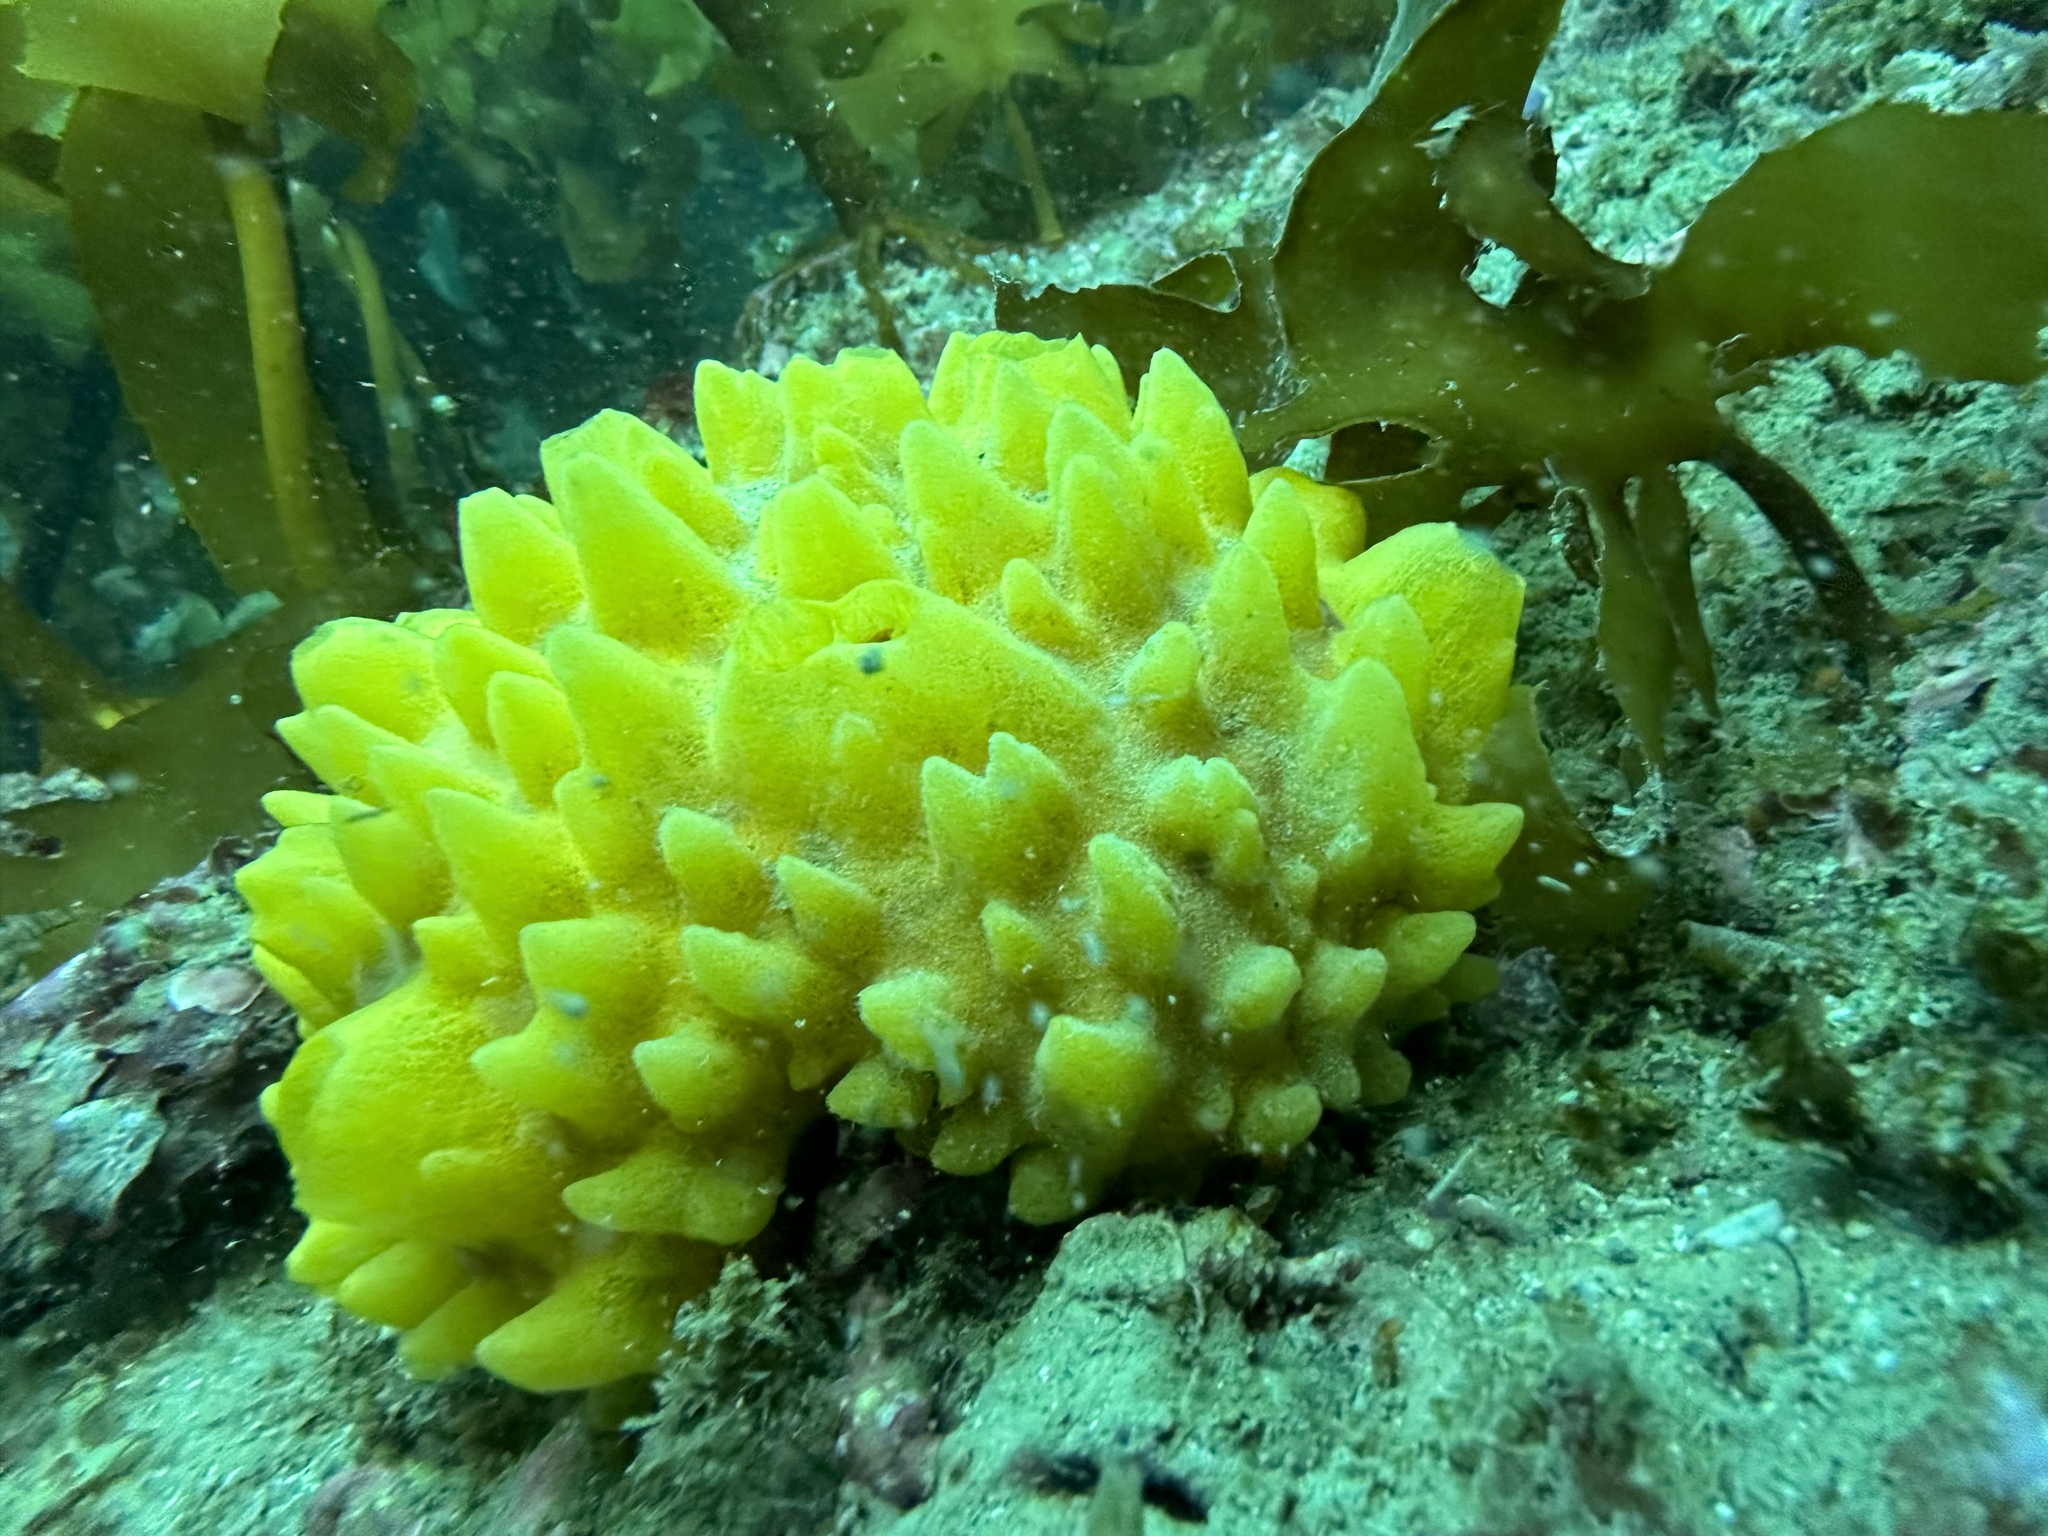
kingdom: Animalia
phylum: Porifera
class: Demospongiae
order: Polymastiida
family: Polymastiidae
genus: Polymastia
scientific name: Polymastia crocea
